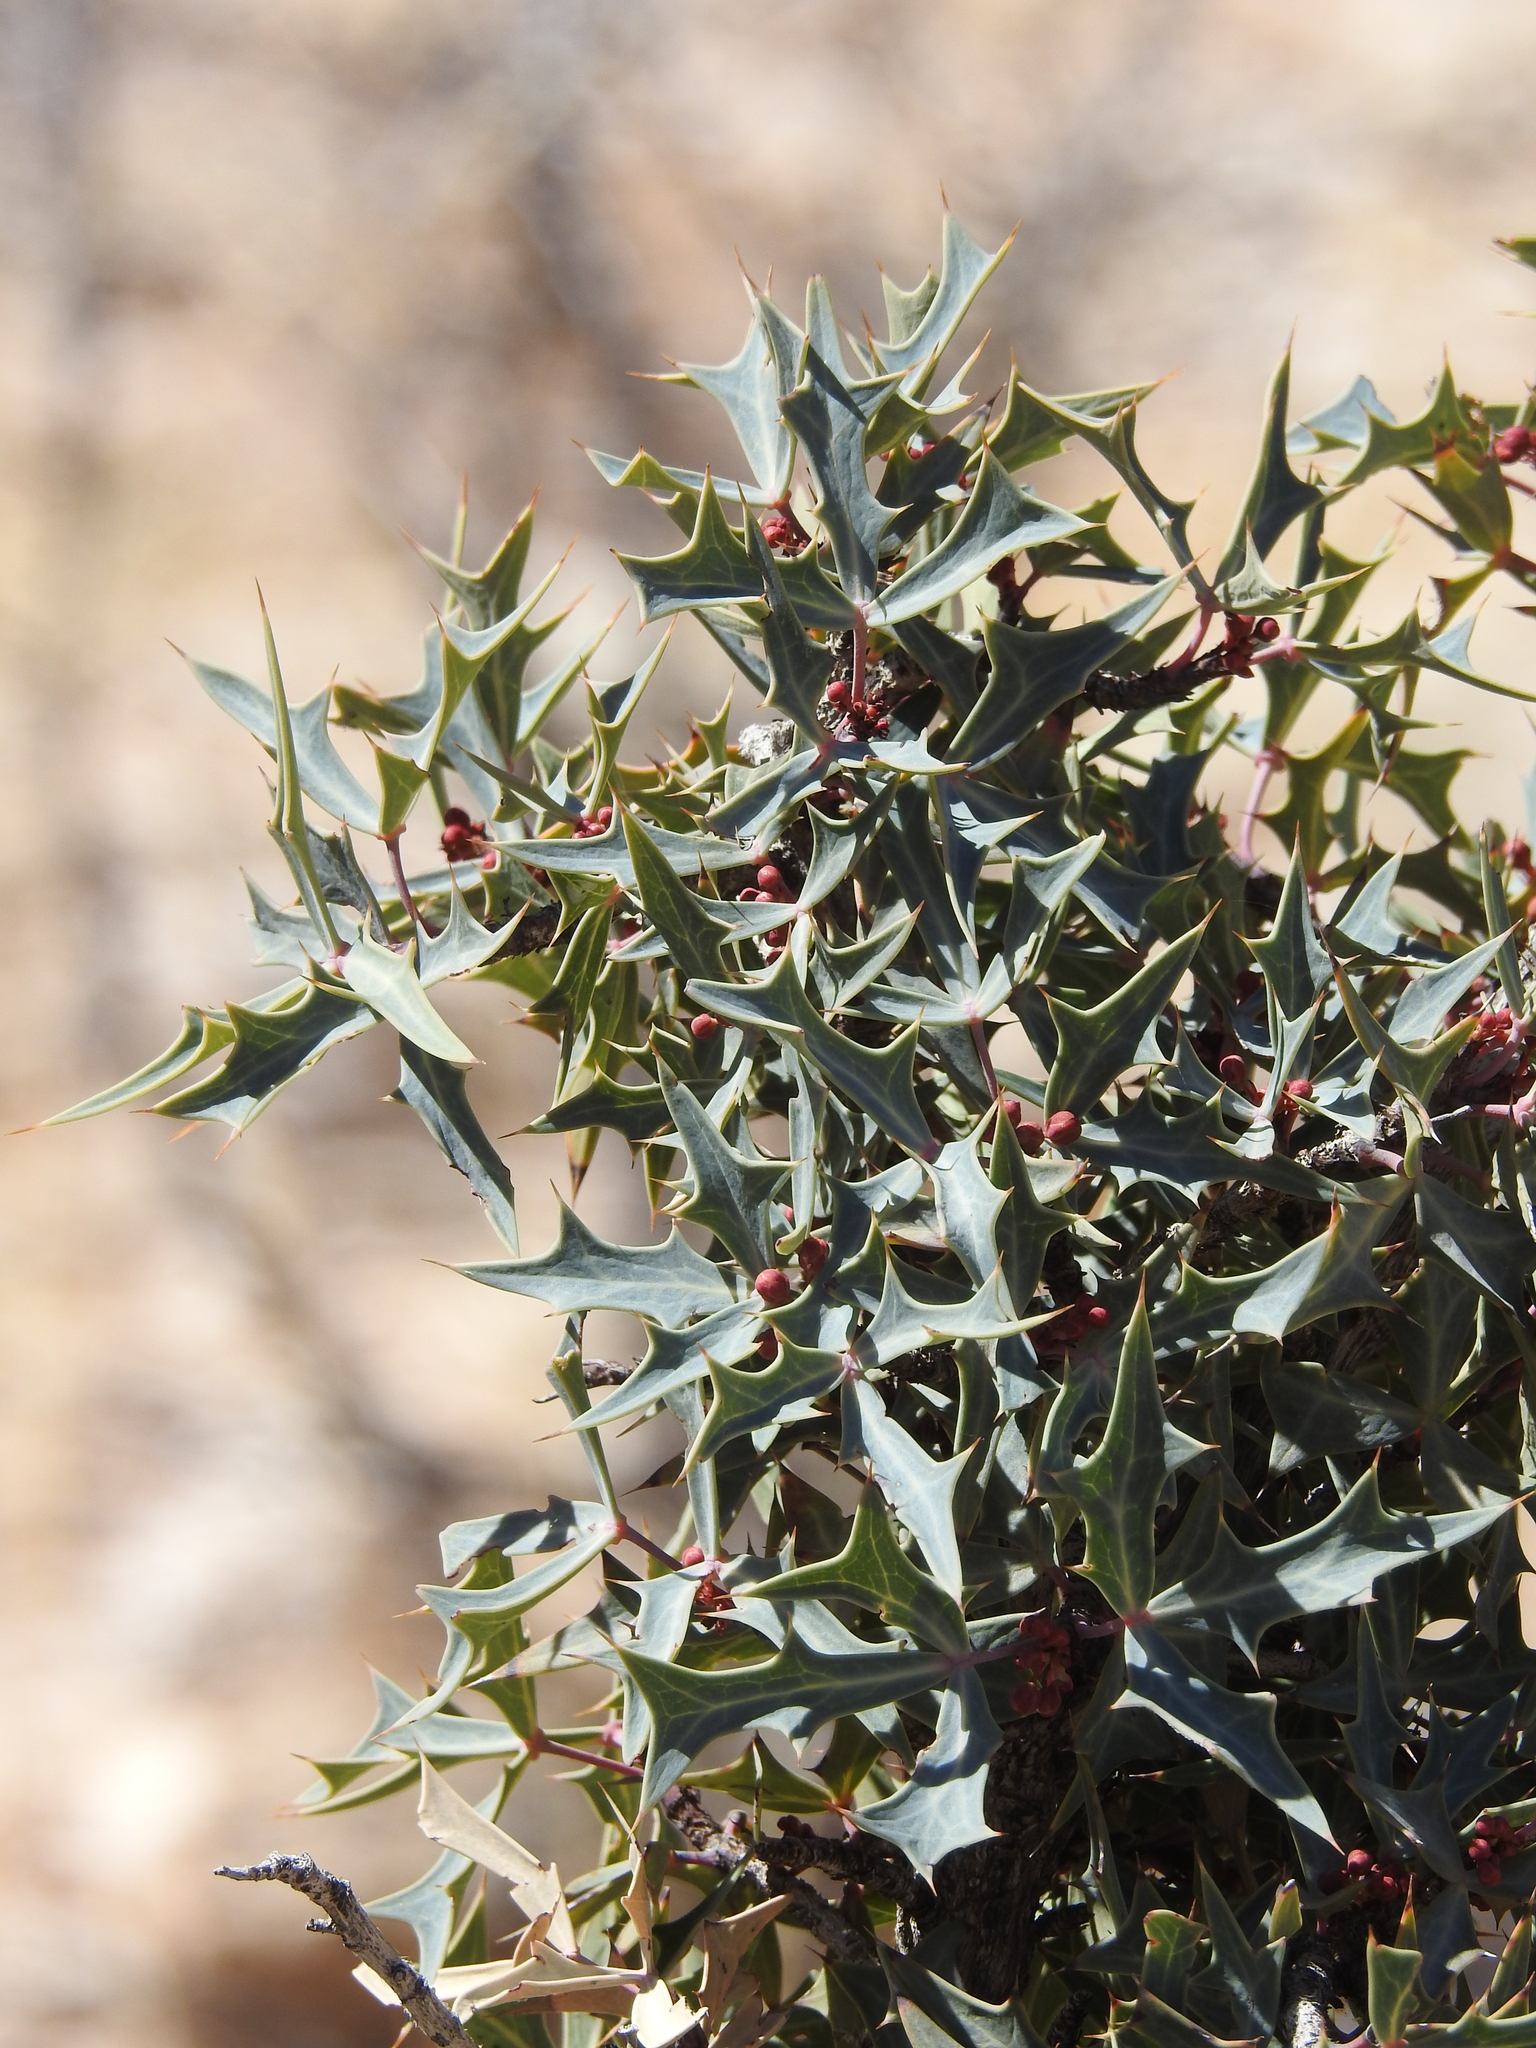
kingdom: Plantae
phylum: Tracheophyta
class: Magnoliopsida
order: Ranunculales
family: Berberidaceae
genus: Alloberberis
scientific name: Alloberberis trifoliolata
